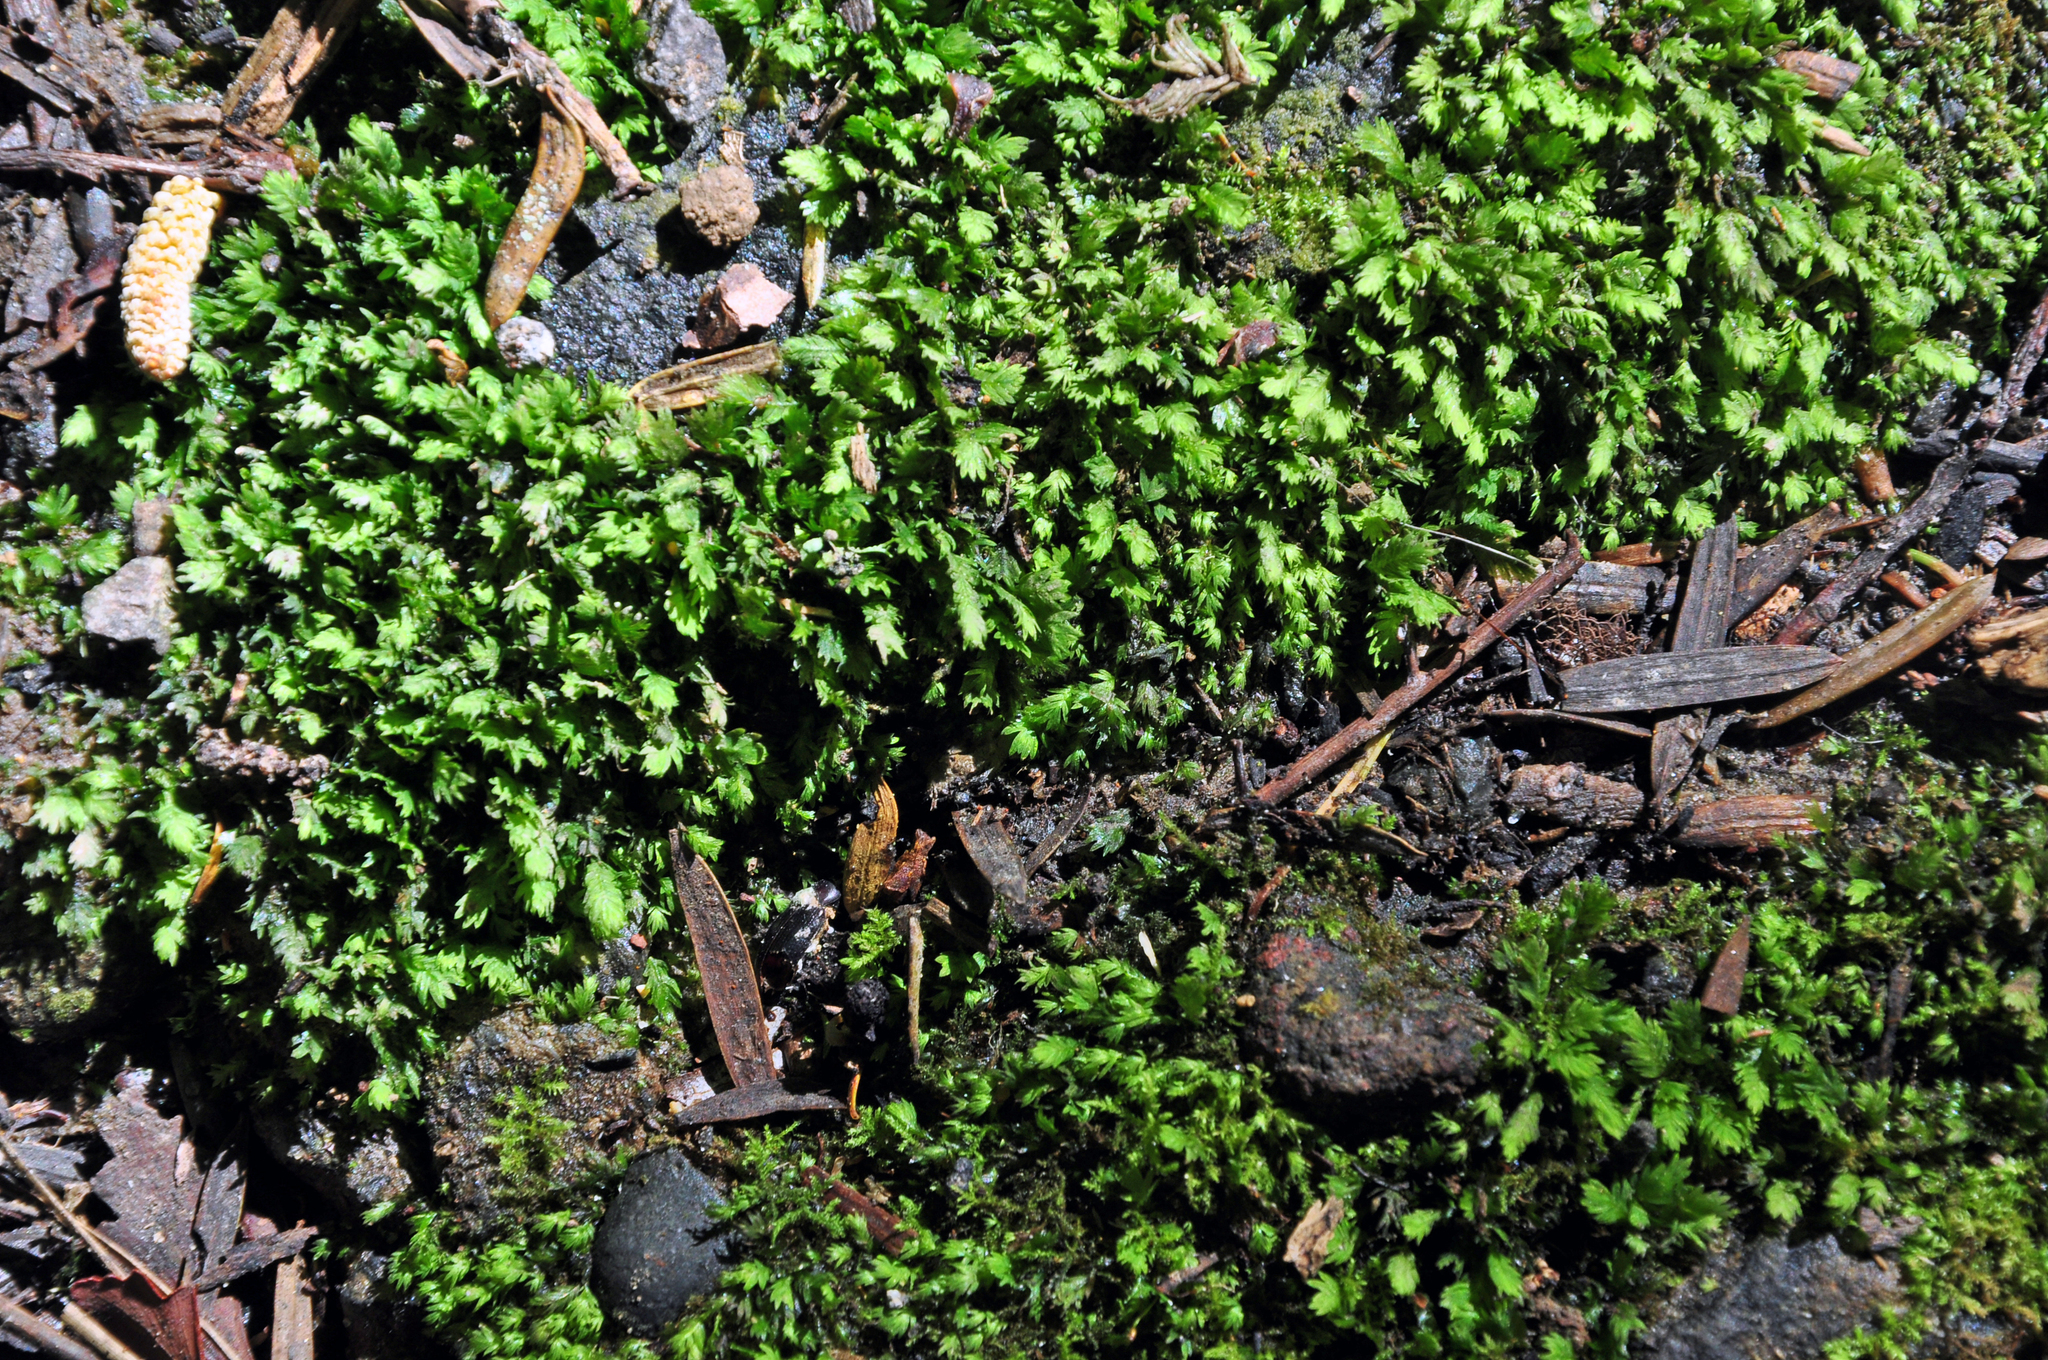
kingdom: Plantae
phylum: Bryophyta
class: Bryopsida
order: Dicranales
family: Fissidentaceae
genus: Fissidens
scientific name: Fissidens taxifolius
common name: Yew-leaved pocket moss
